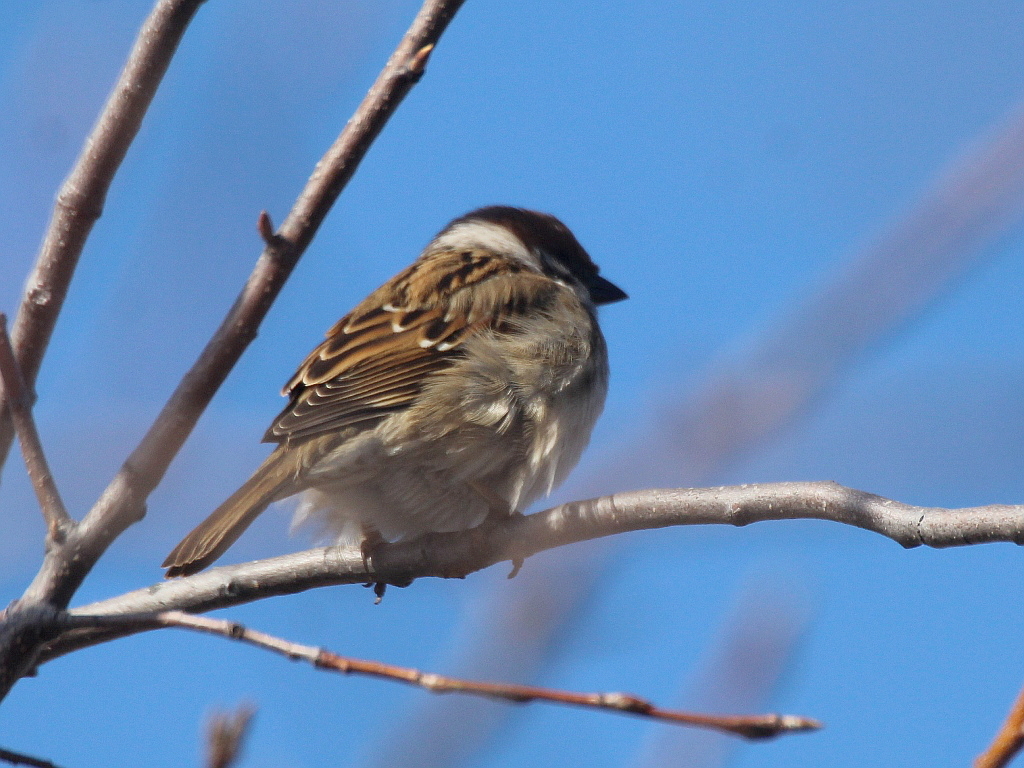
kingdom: Animalia
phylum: Chordata
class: Aves
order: Passeriformes
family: Passeridae
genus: Passer
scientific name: Passer montanus
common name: Eurasian tree sparrow
